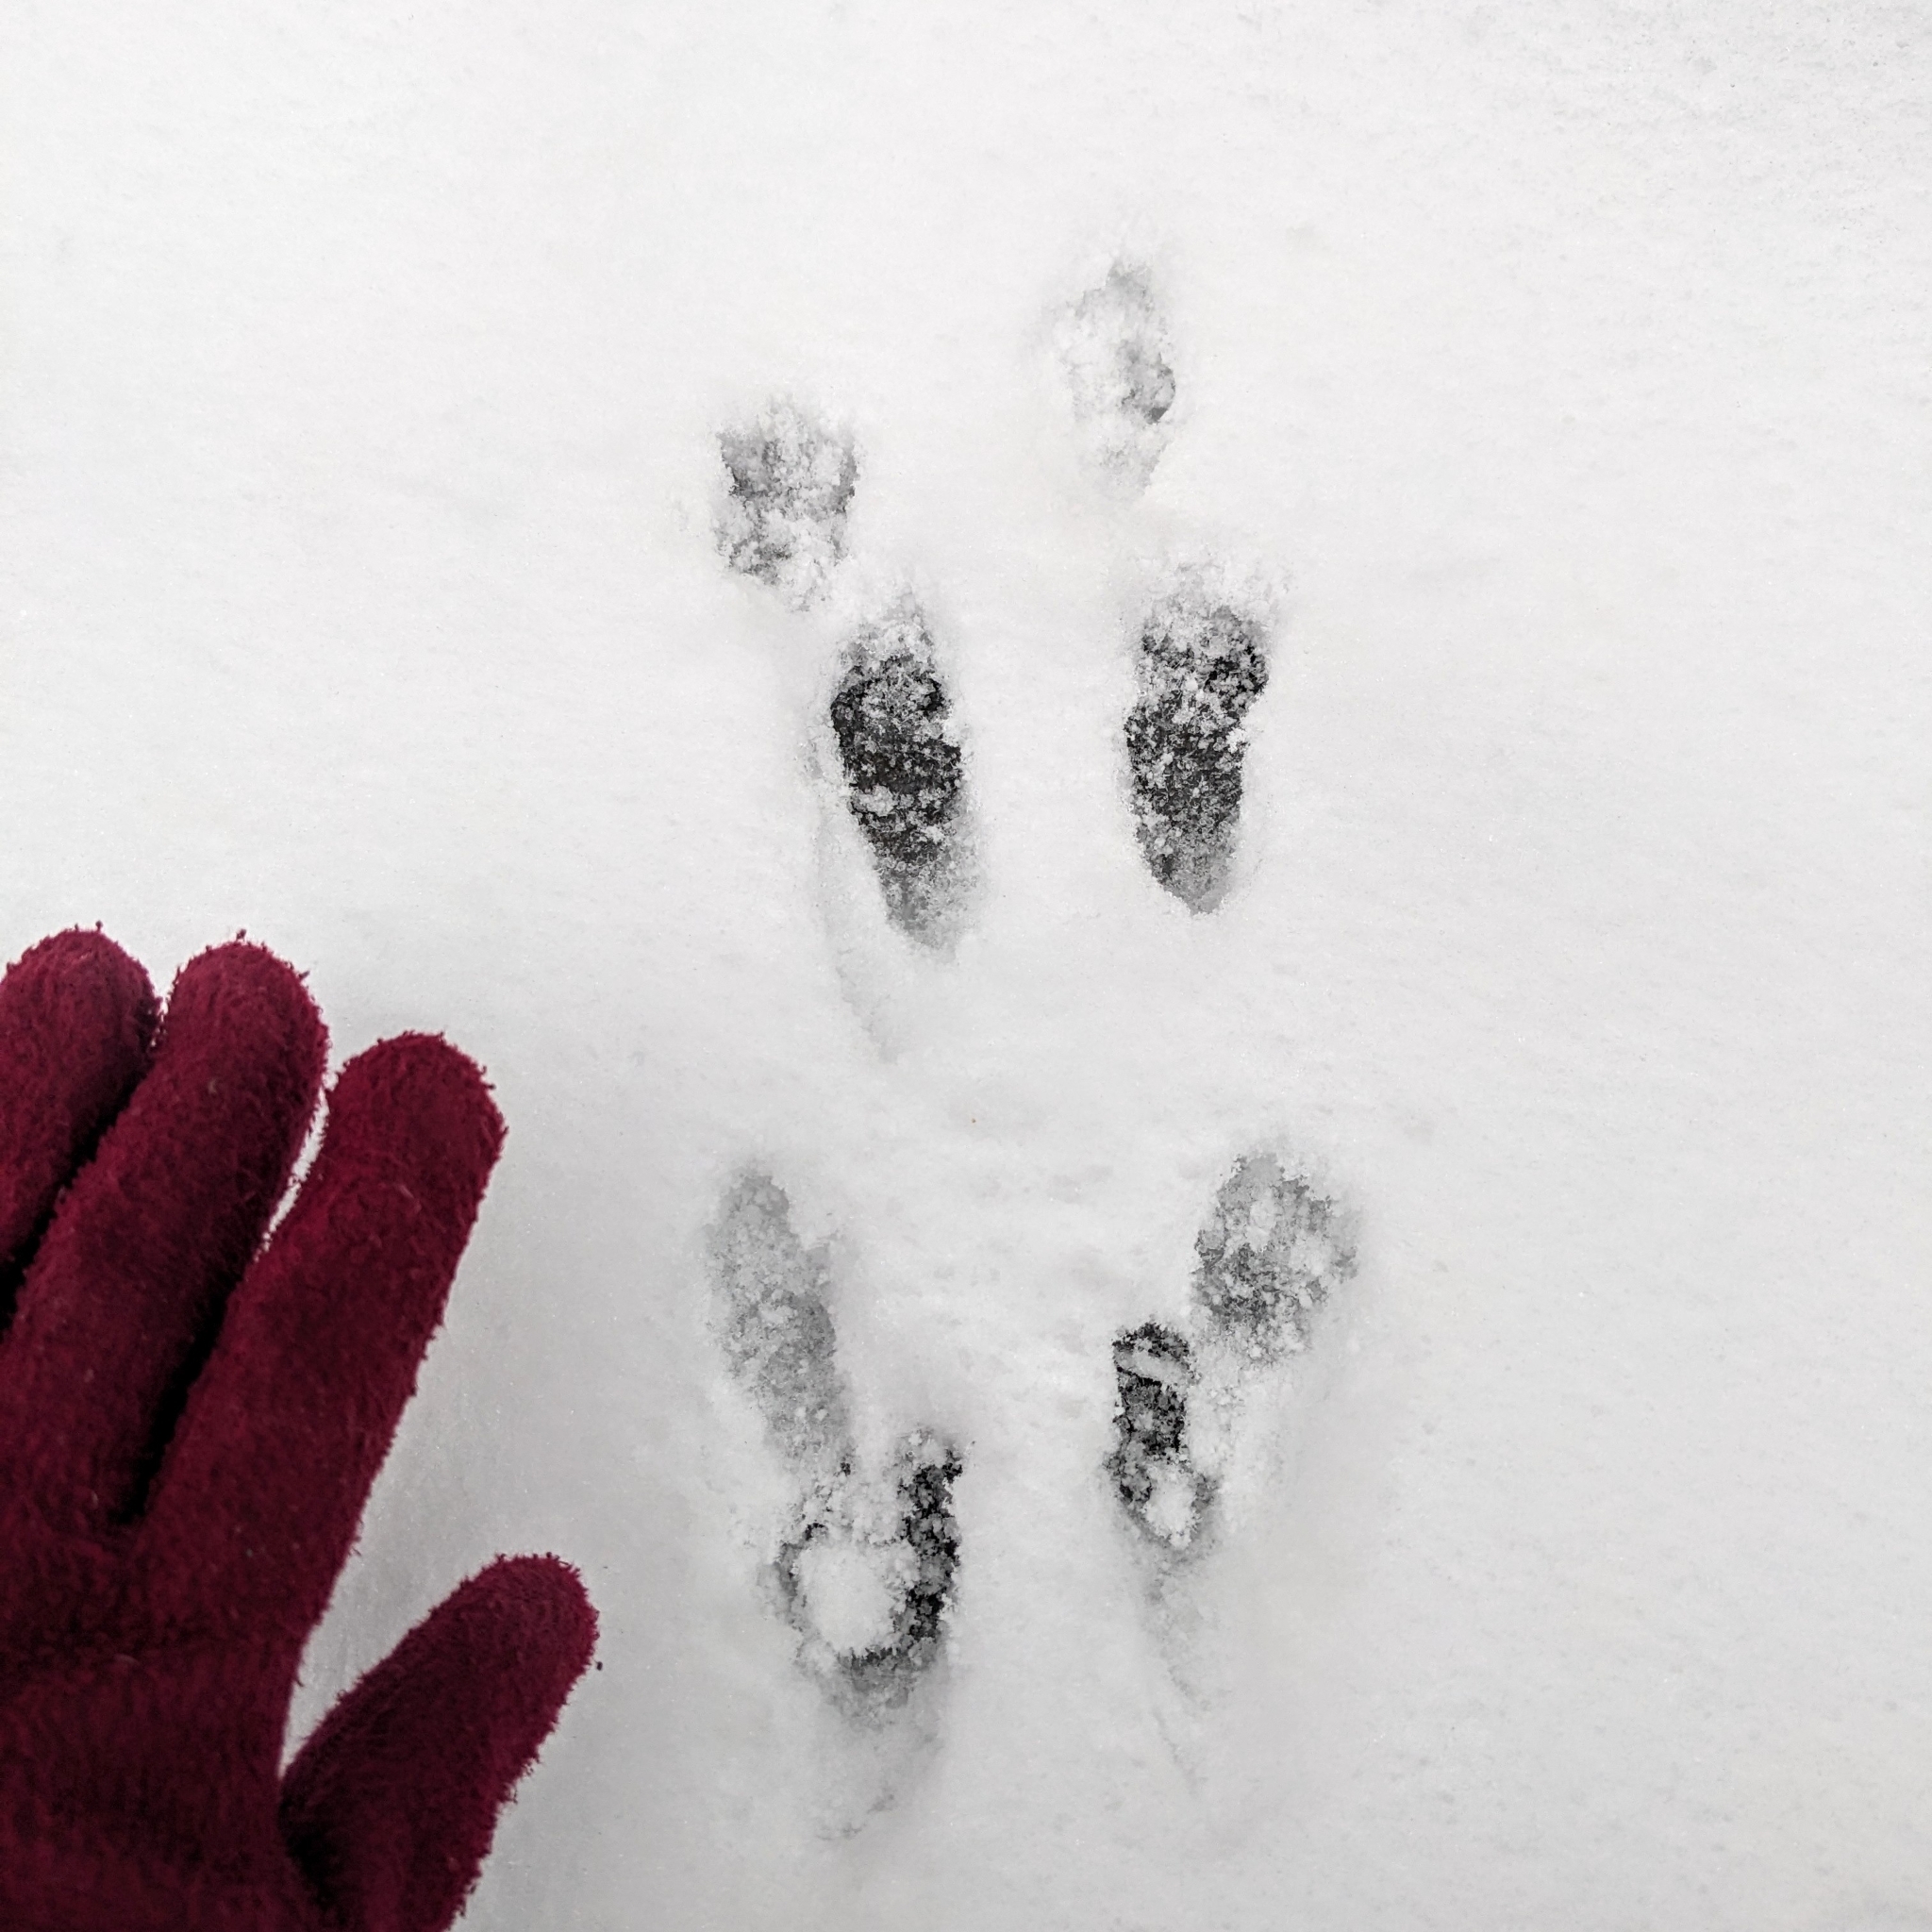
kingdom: Animalia
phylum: Chordata
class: Mammalia
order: Rodentia
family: Sciuridae
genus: Sciurus
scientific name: Sciurus carolinensis
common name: Eastern gray squirrel
